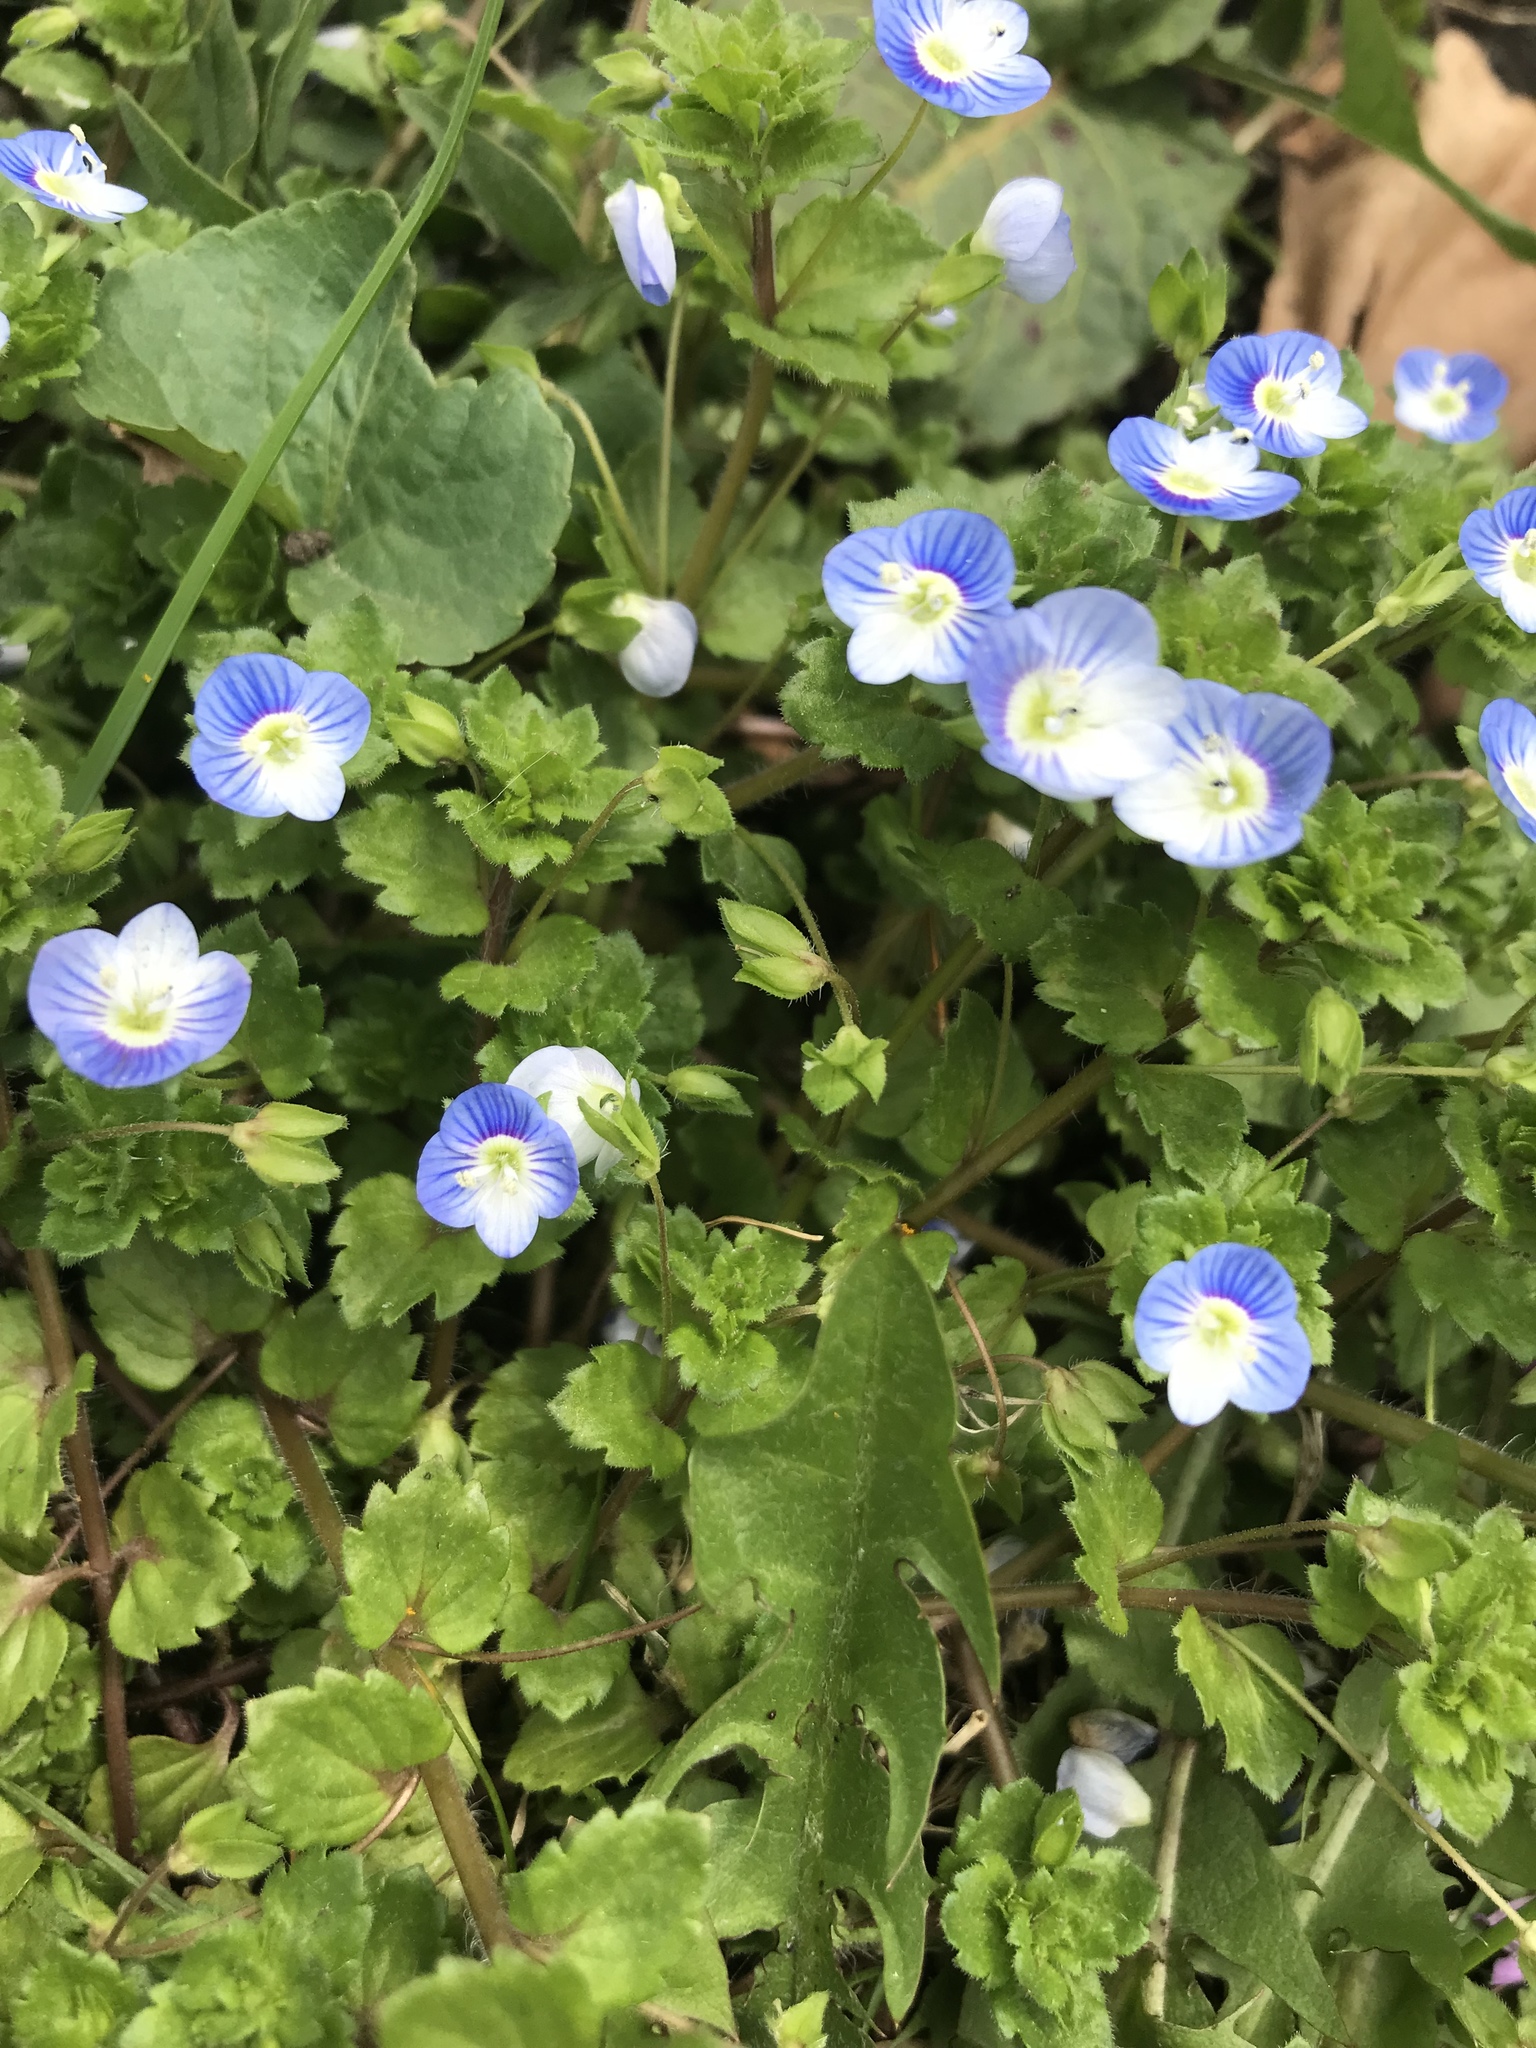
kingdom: Plantae
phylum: Tracheophyta
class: Magnoliopsida
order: Lamiales
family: Plantaginaceae
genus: Veronica
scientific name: Veronica persica
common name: Common field-speedwell
